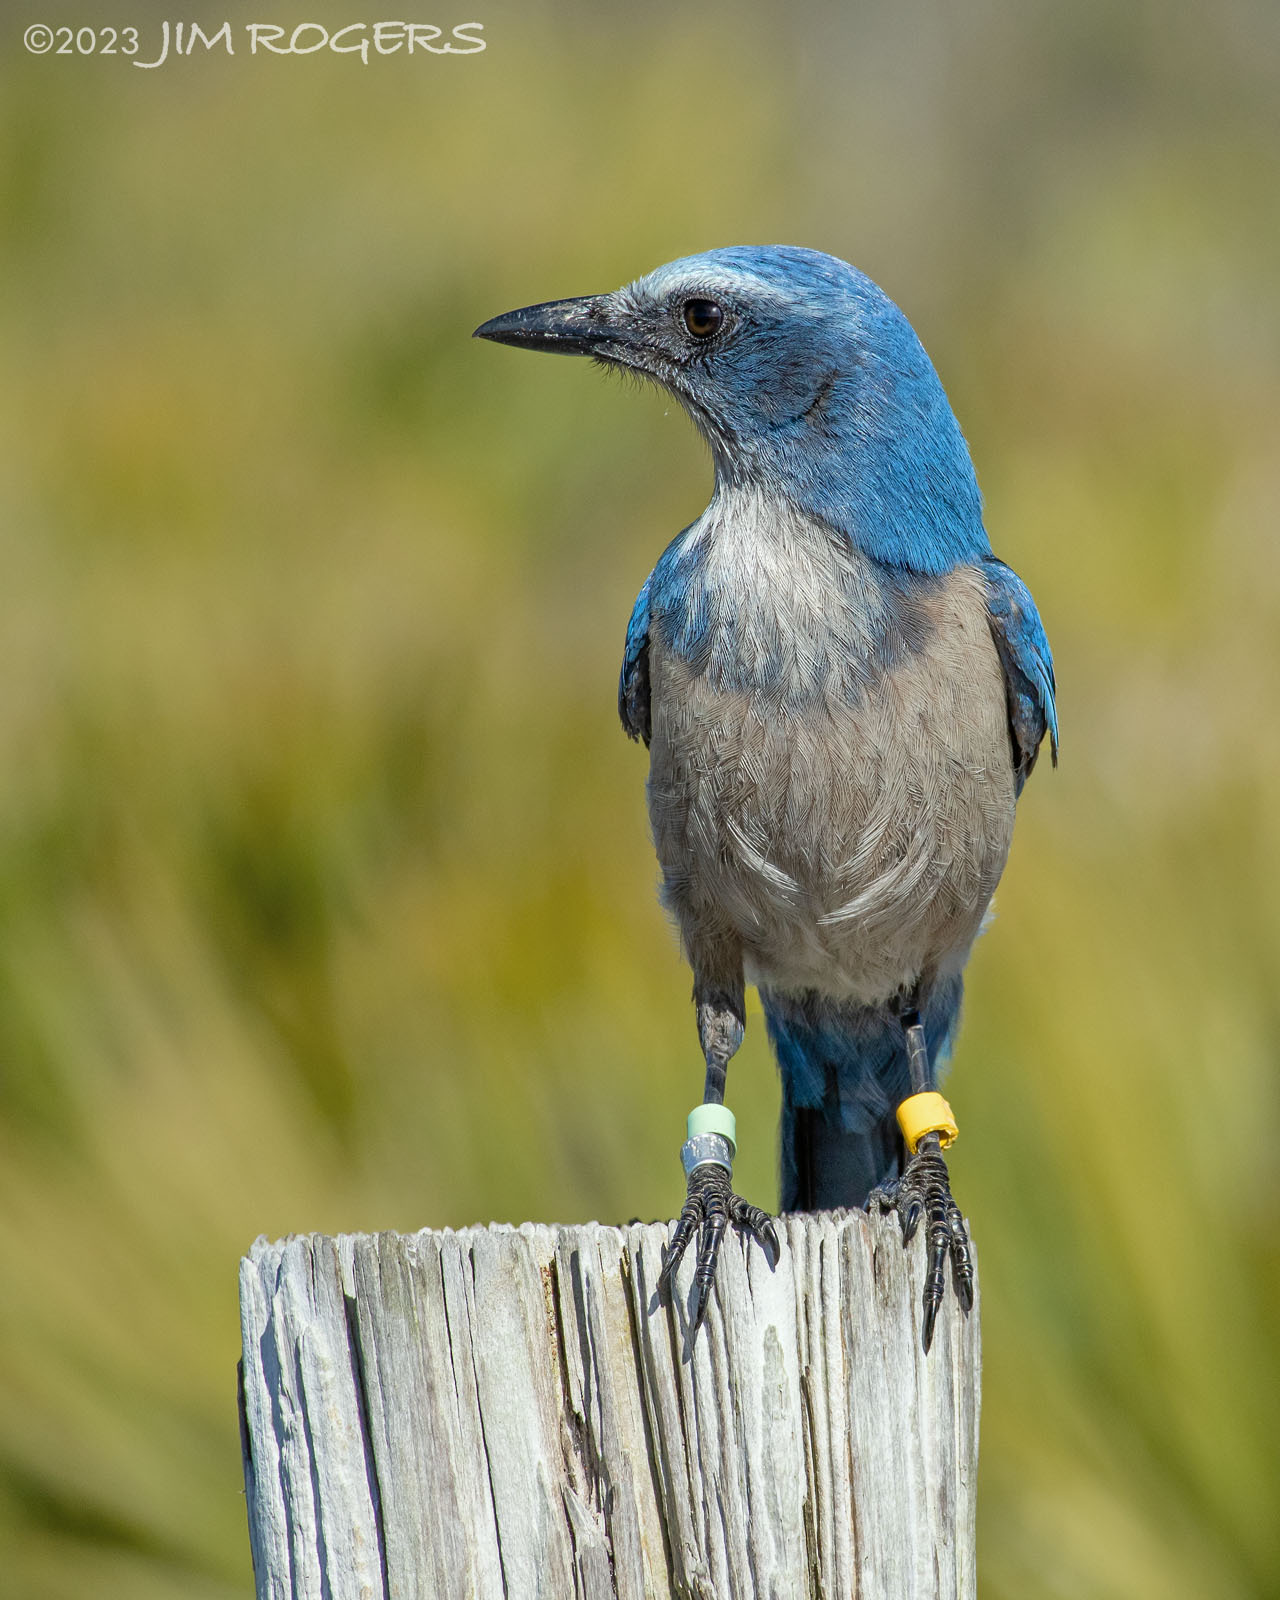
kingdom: Animalia
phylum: Chordata
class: Aves
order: Passeriformes
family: Corvidae
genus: Aphelocoma
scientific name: Aphelocoma coerulescens
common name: Florida scrub jay
